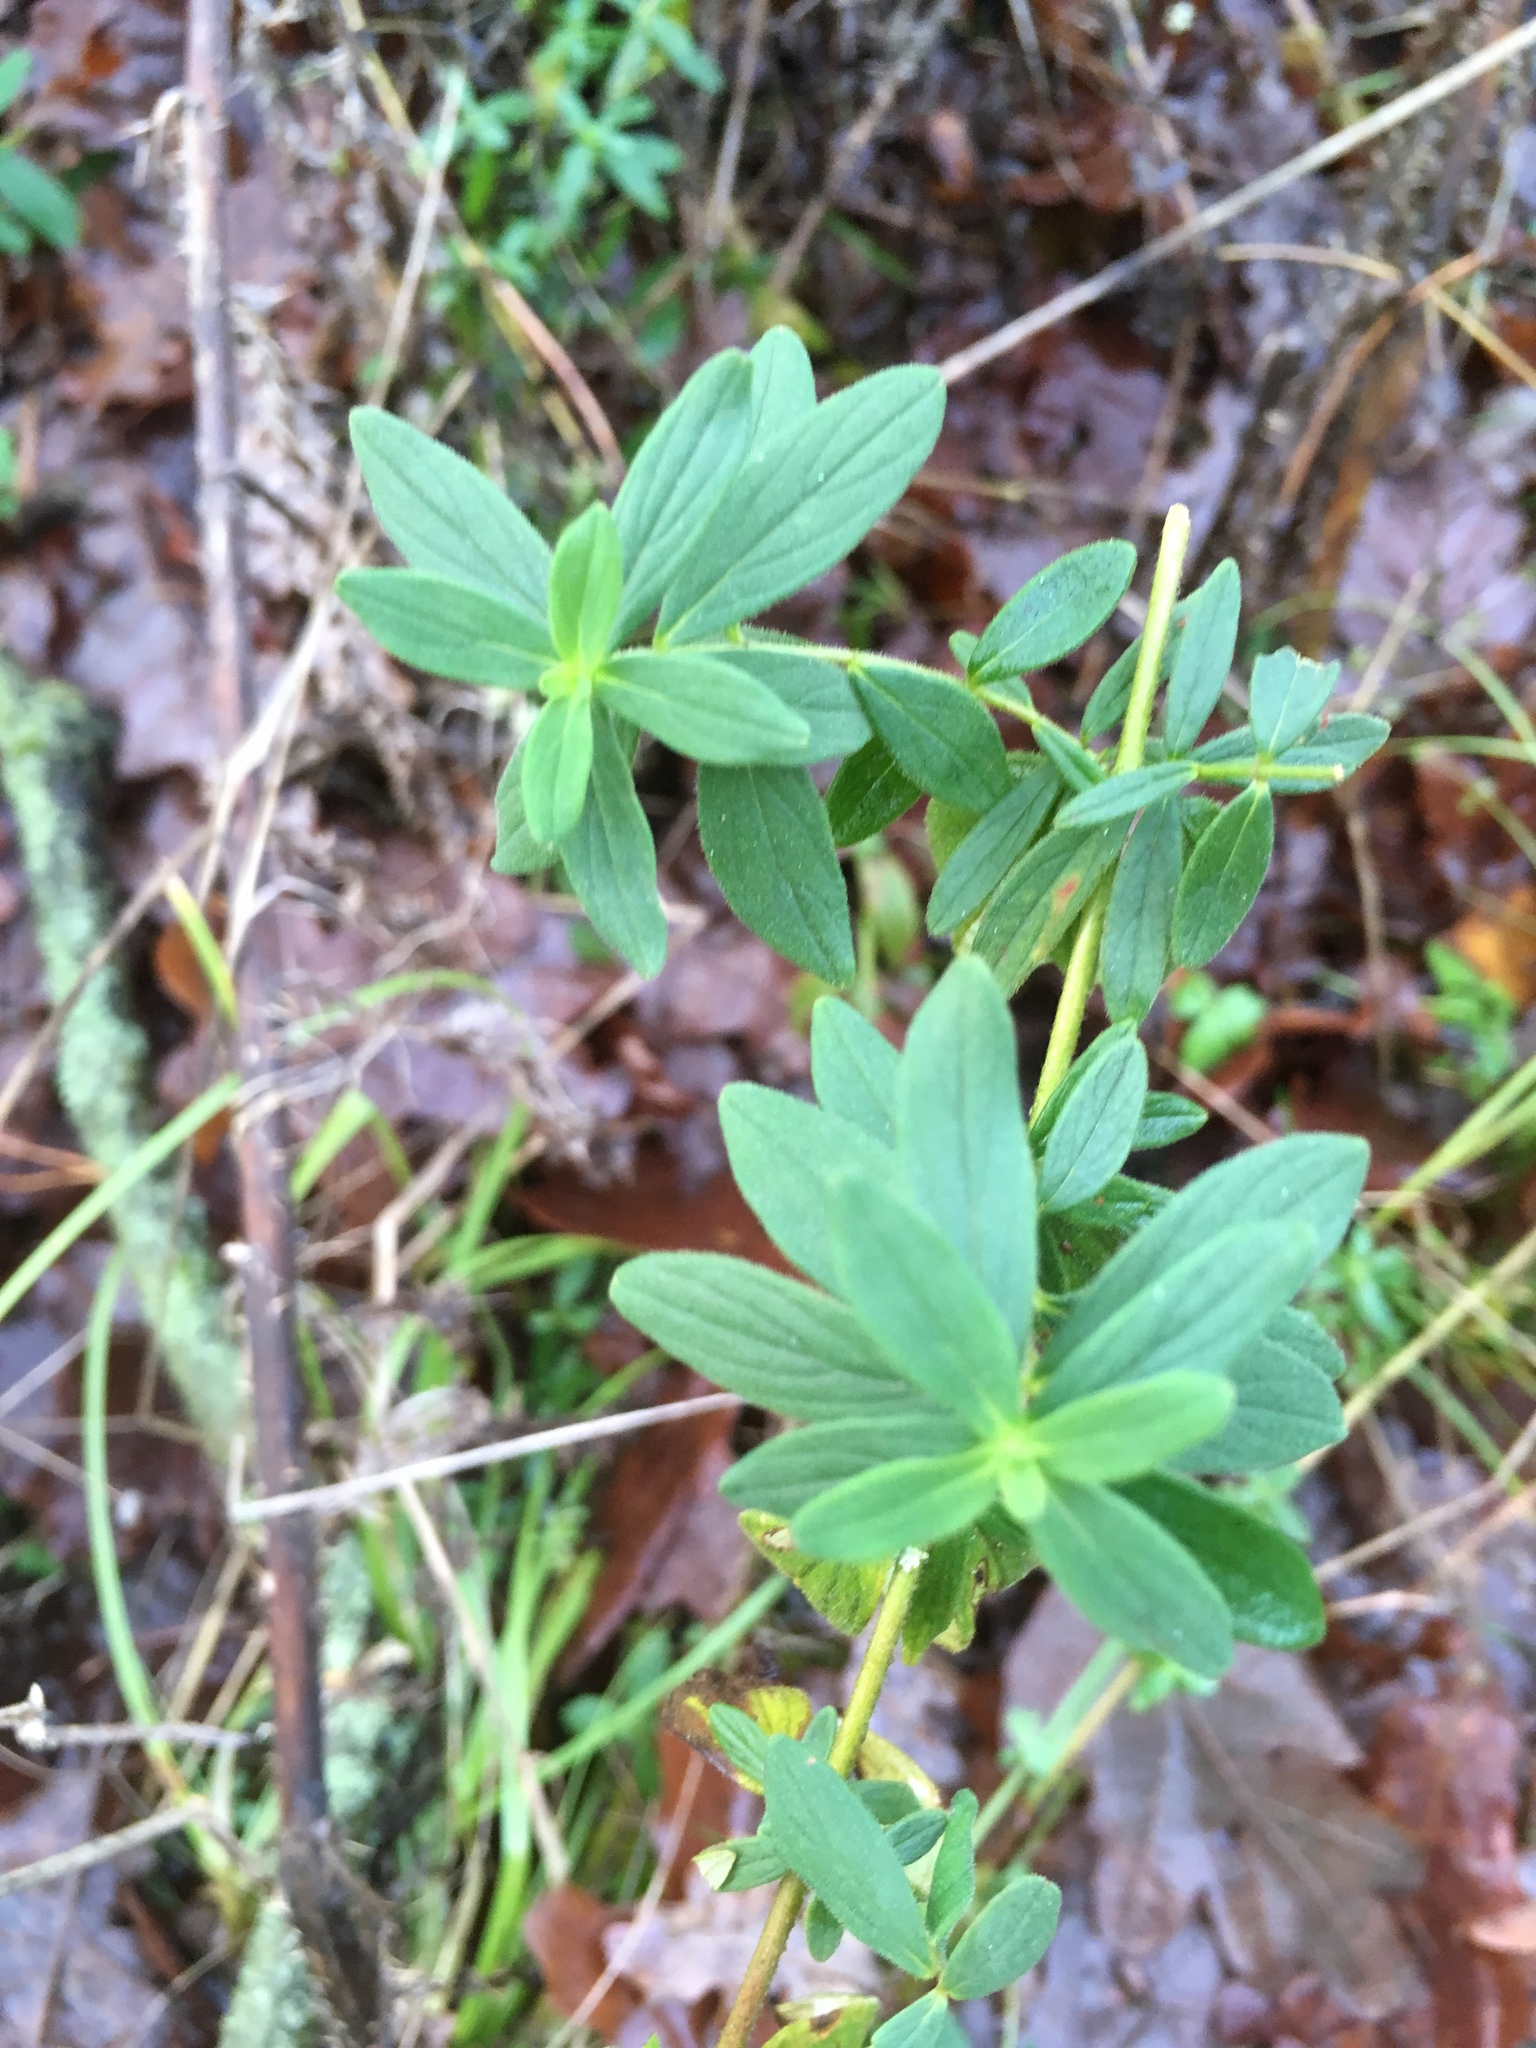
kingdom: Plantae
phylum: Tracheophyta
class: Magnoliopsida
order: Malpighiales
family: Hypericaceae
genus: Hypericum
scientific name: Hypericum hirsutum
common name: Hairy st. john's-wort
